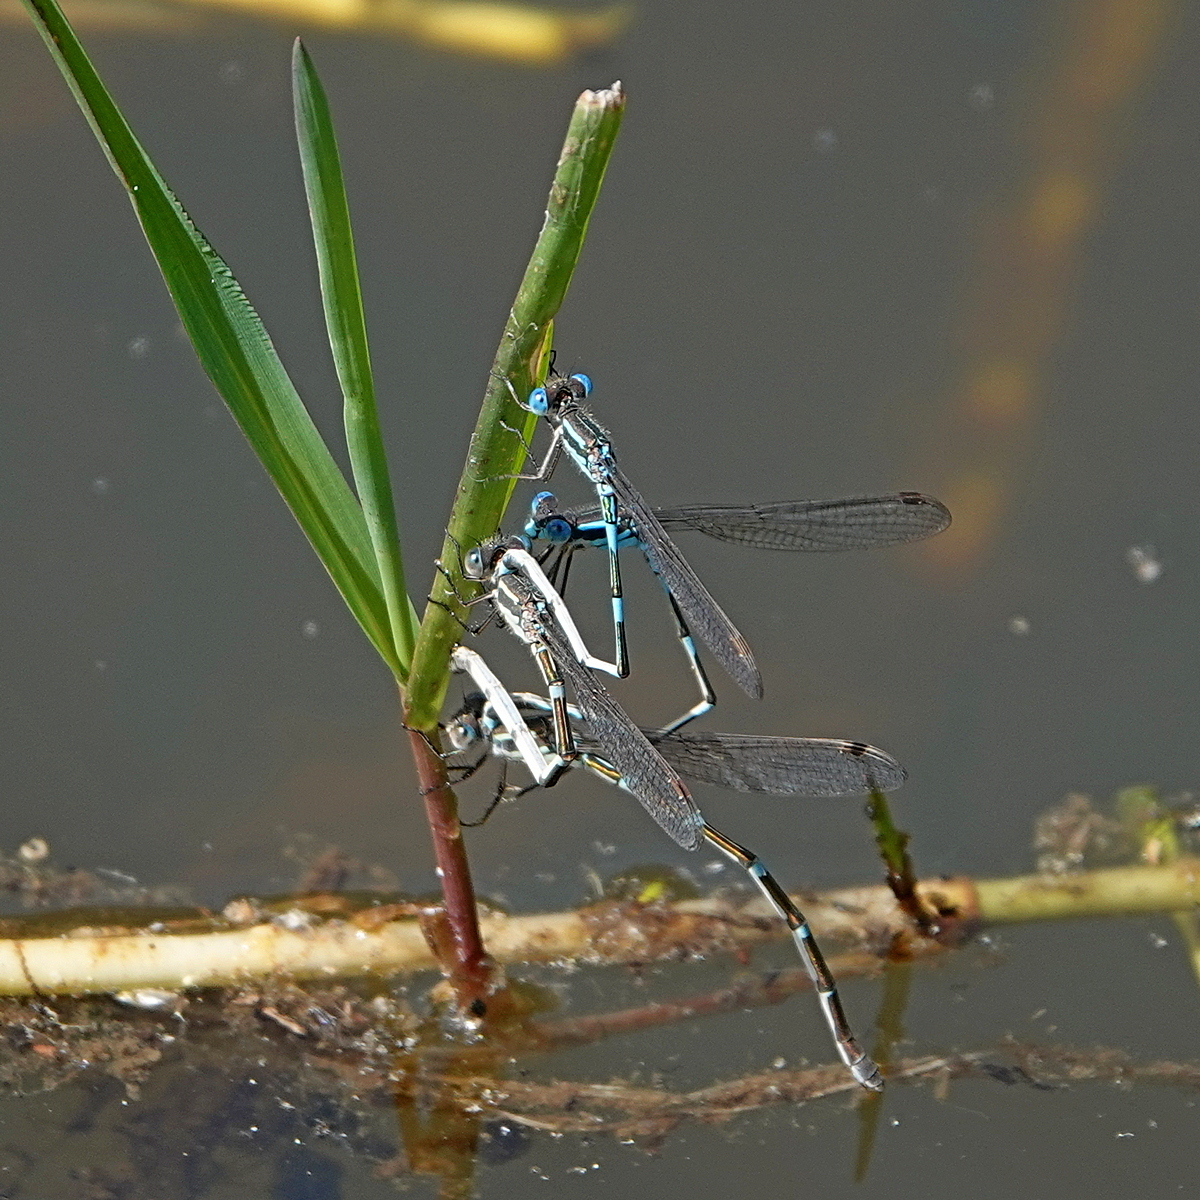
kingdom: Animalia
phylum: Arthropoda
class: Insecta
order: Odonata
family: Lestidae
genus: Austrolestes
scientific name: Austrolestes leda
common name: Wandering ringtail
